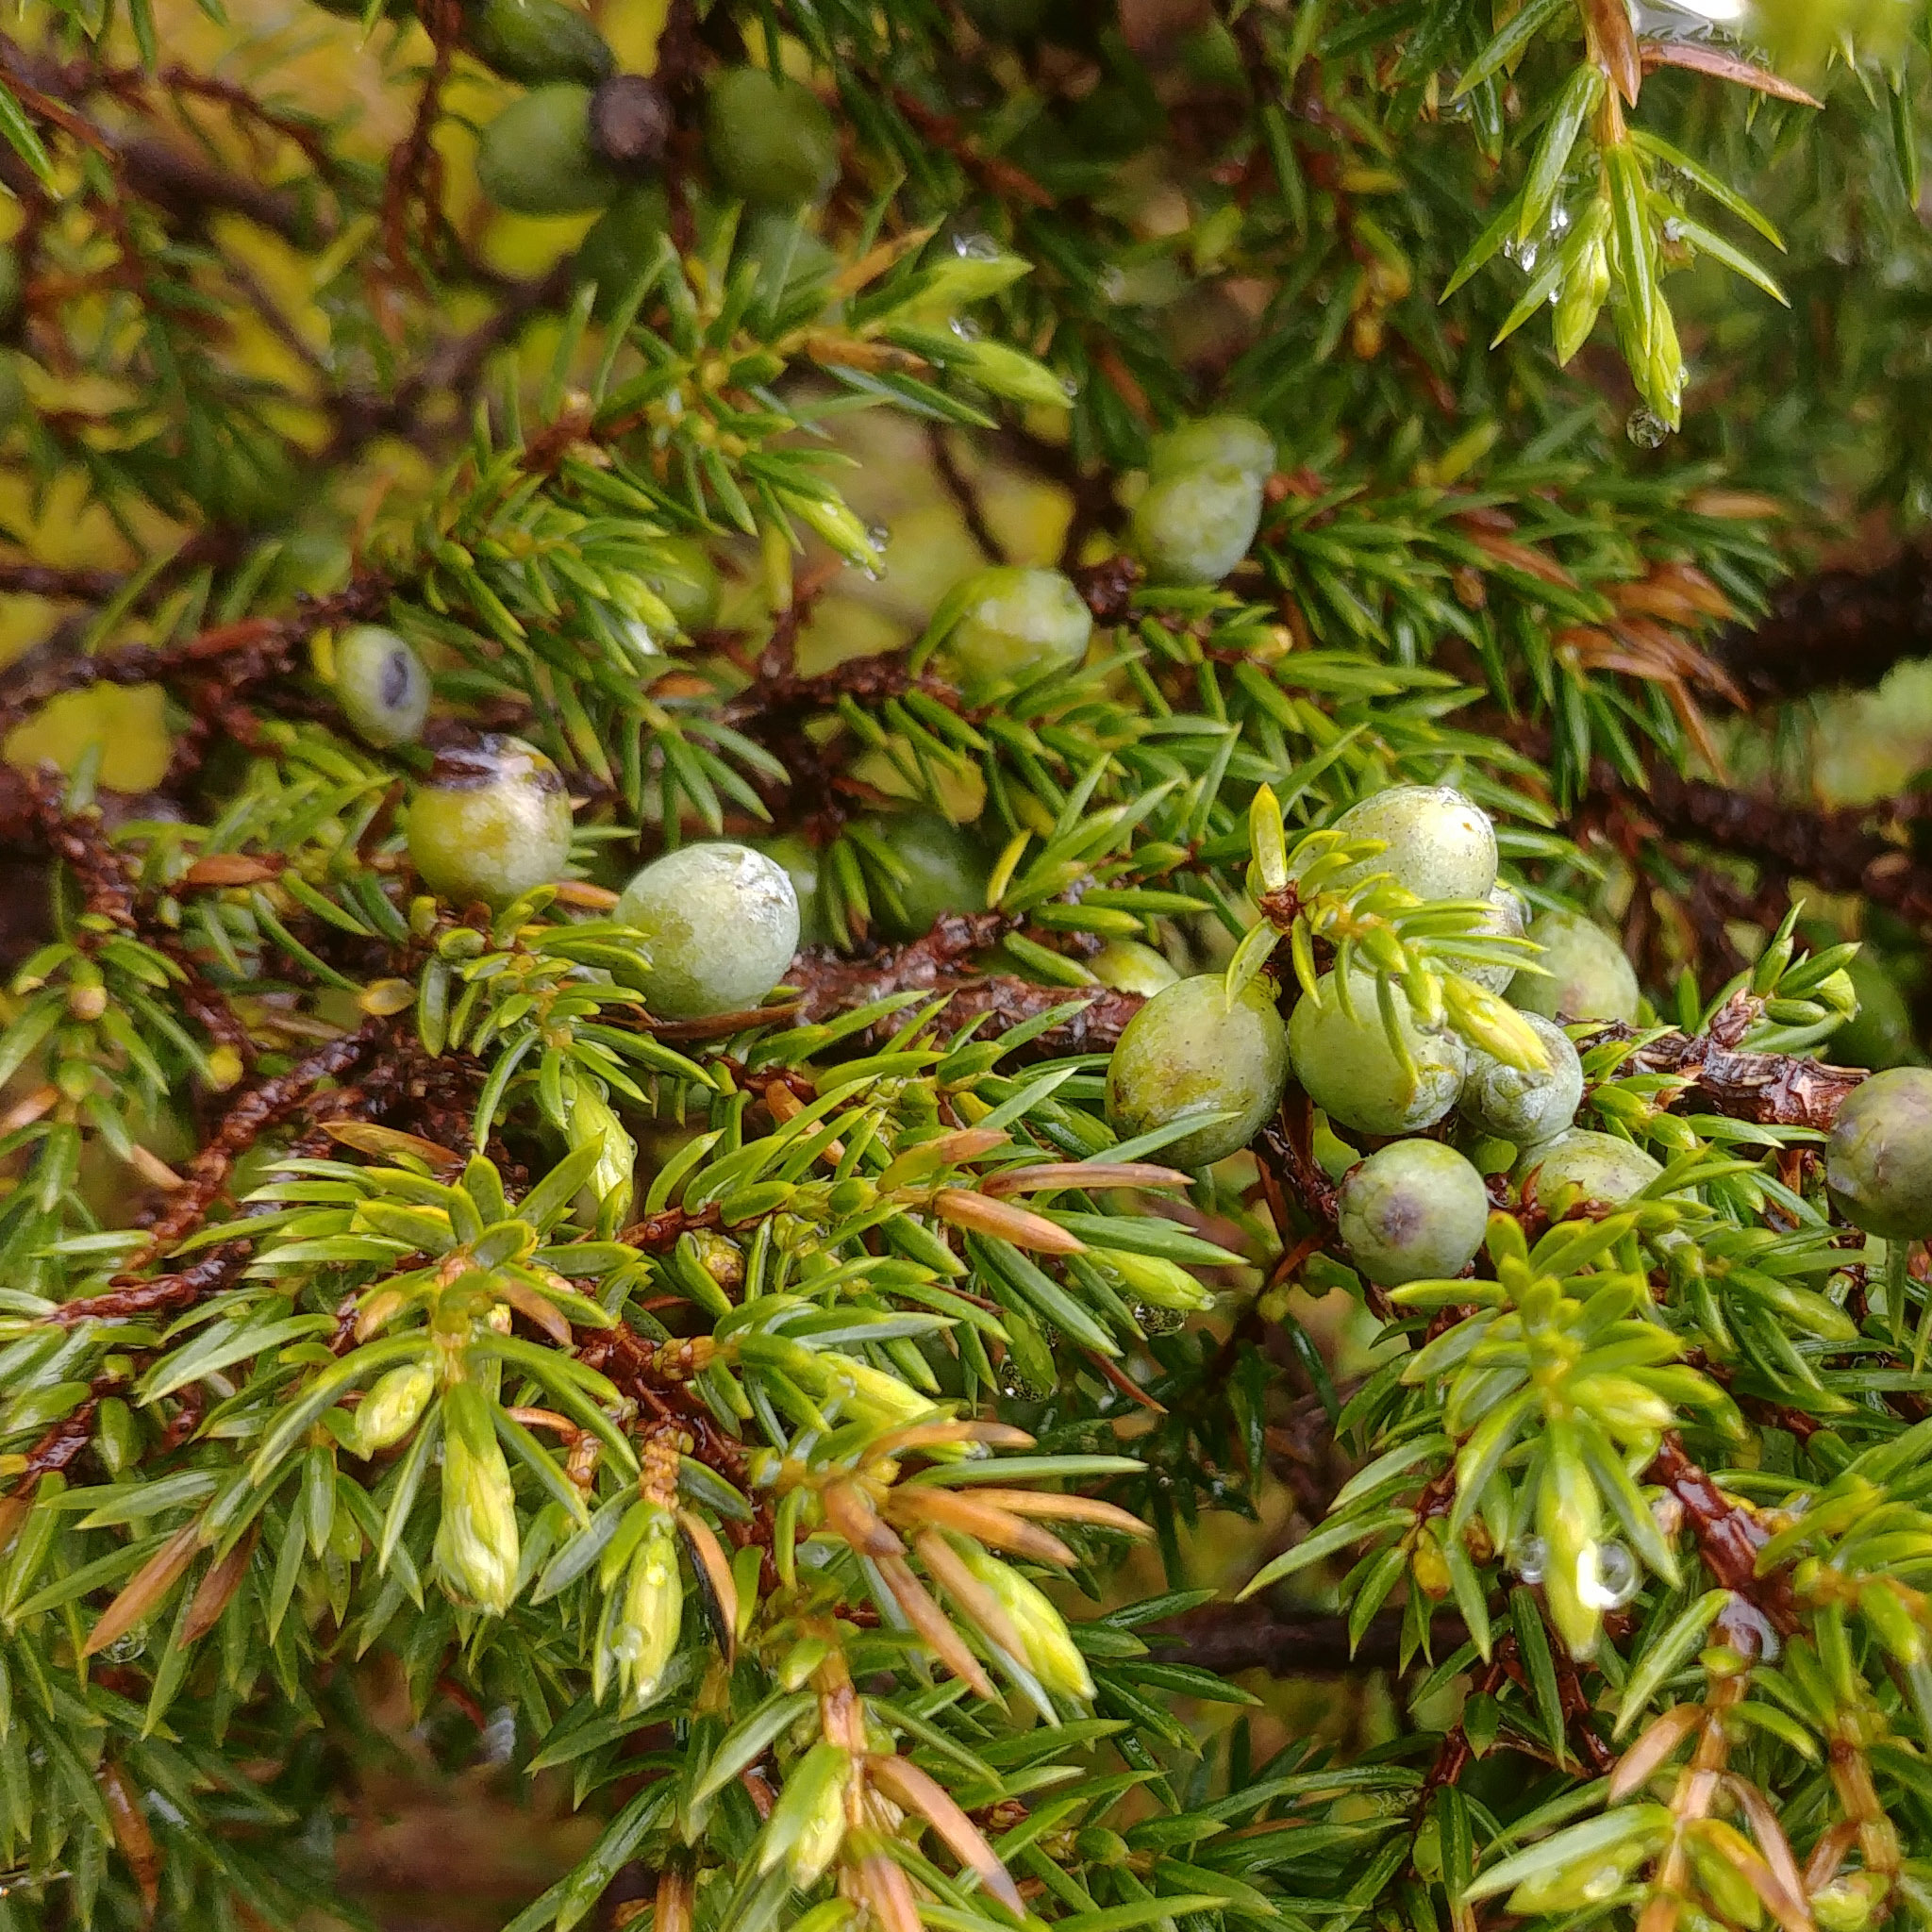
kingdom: Plantae
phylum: Tracheophyta
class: Pinopsida
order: Pinales
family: Cupressaceae
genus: Juniperus
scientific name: Juniperus communis
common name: Common juniper
